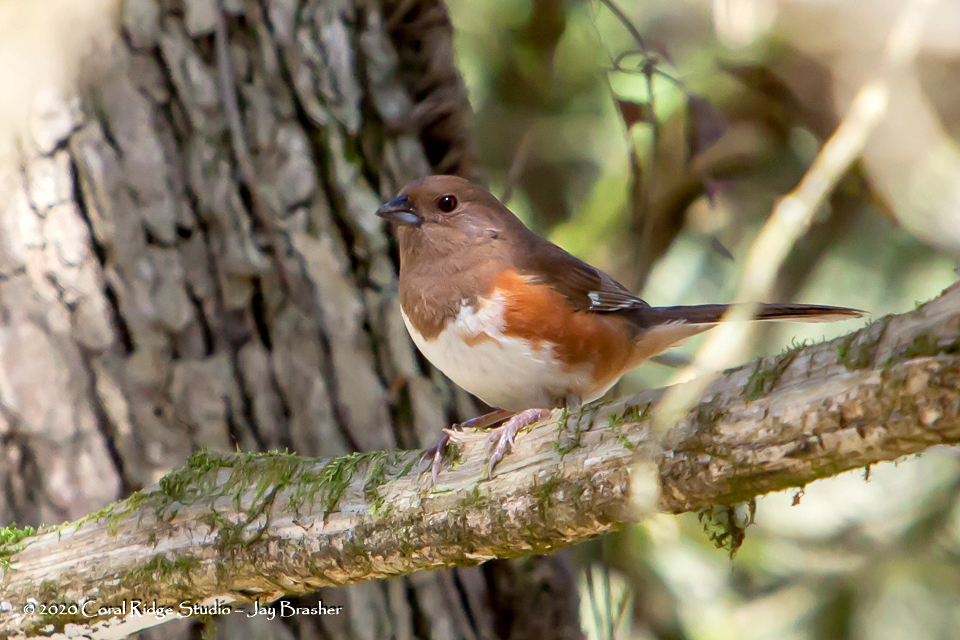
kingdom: Animalia
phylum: Chordata
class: Aves
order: Passeriformes
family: Passerellidae
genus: Pipilo
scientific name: Pipilo erythrophthalmus
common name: Eastern towhee
